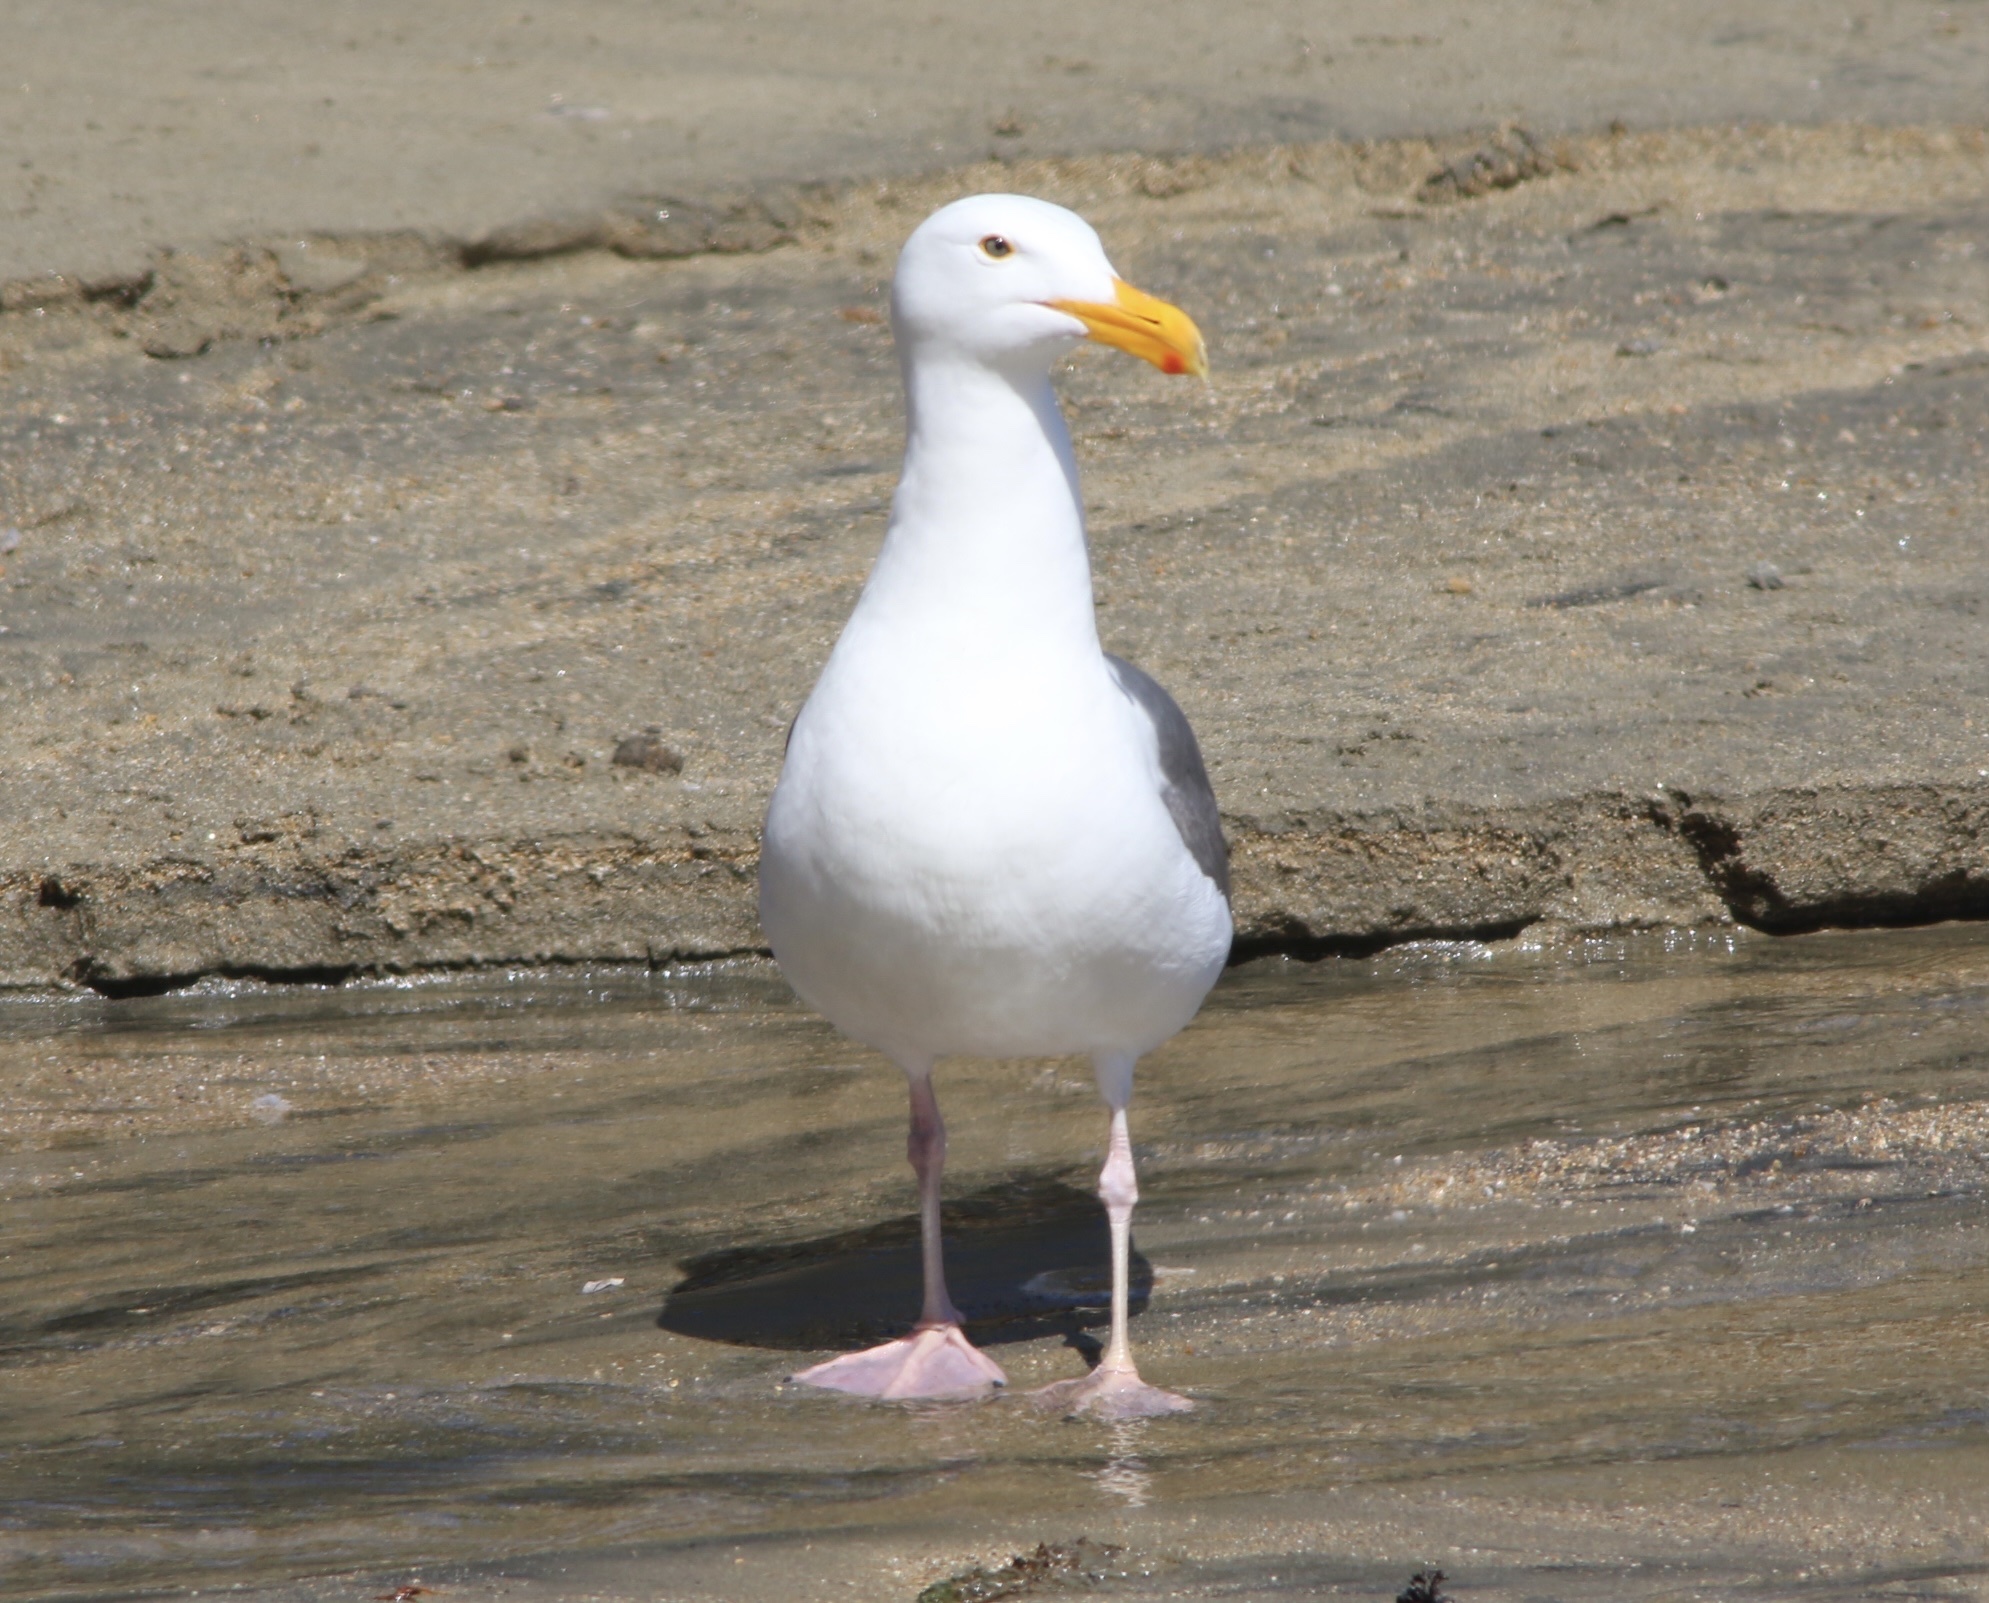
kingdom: Animalia
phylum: Chordata
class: Aves
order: Charadriiformes
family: Laridae
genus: Larus
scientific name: Larus occidentalis
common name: Western gull
